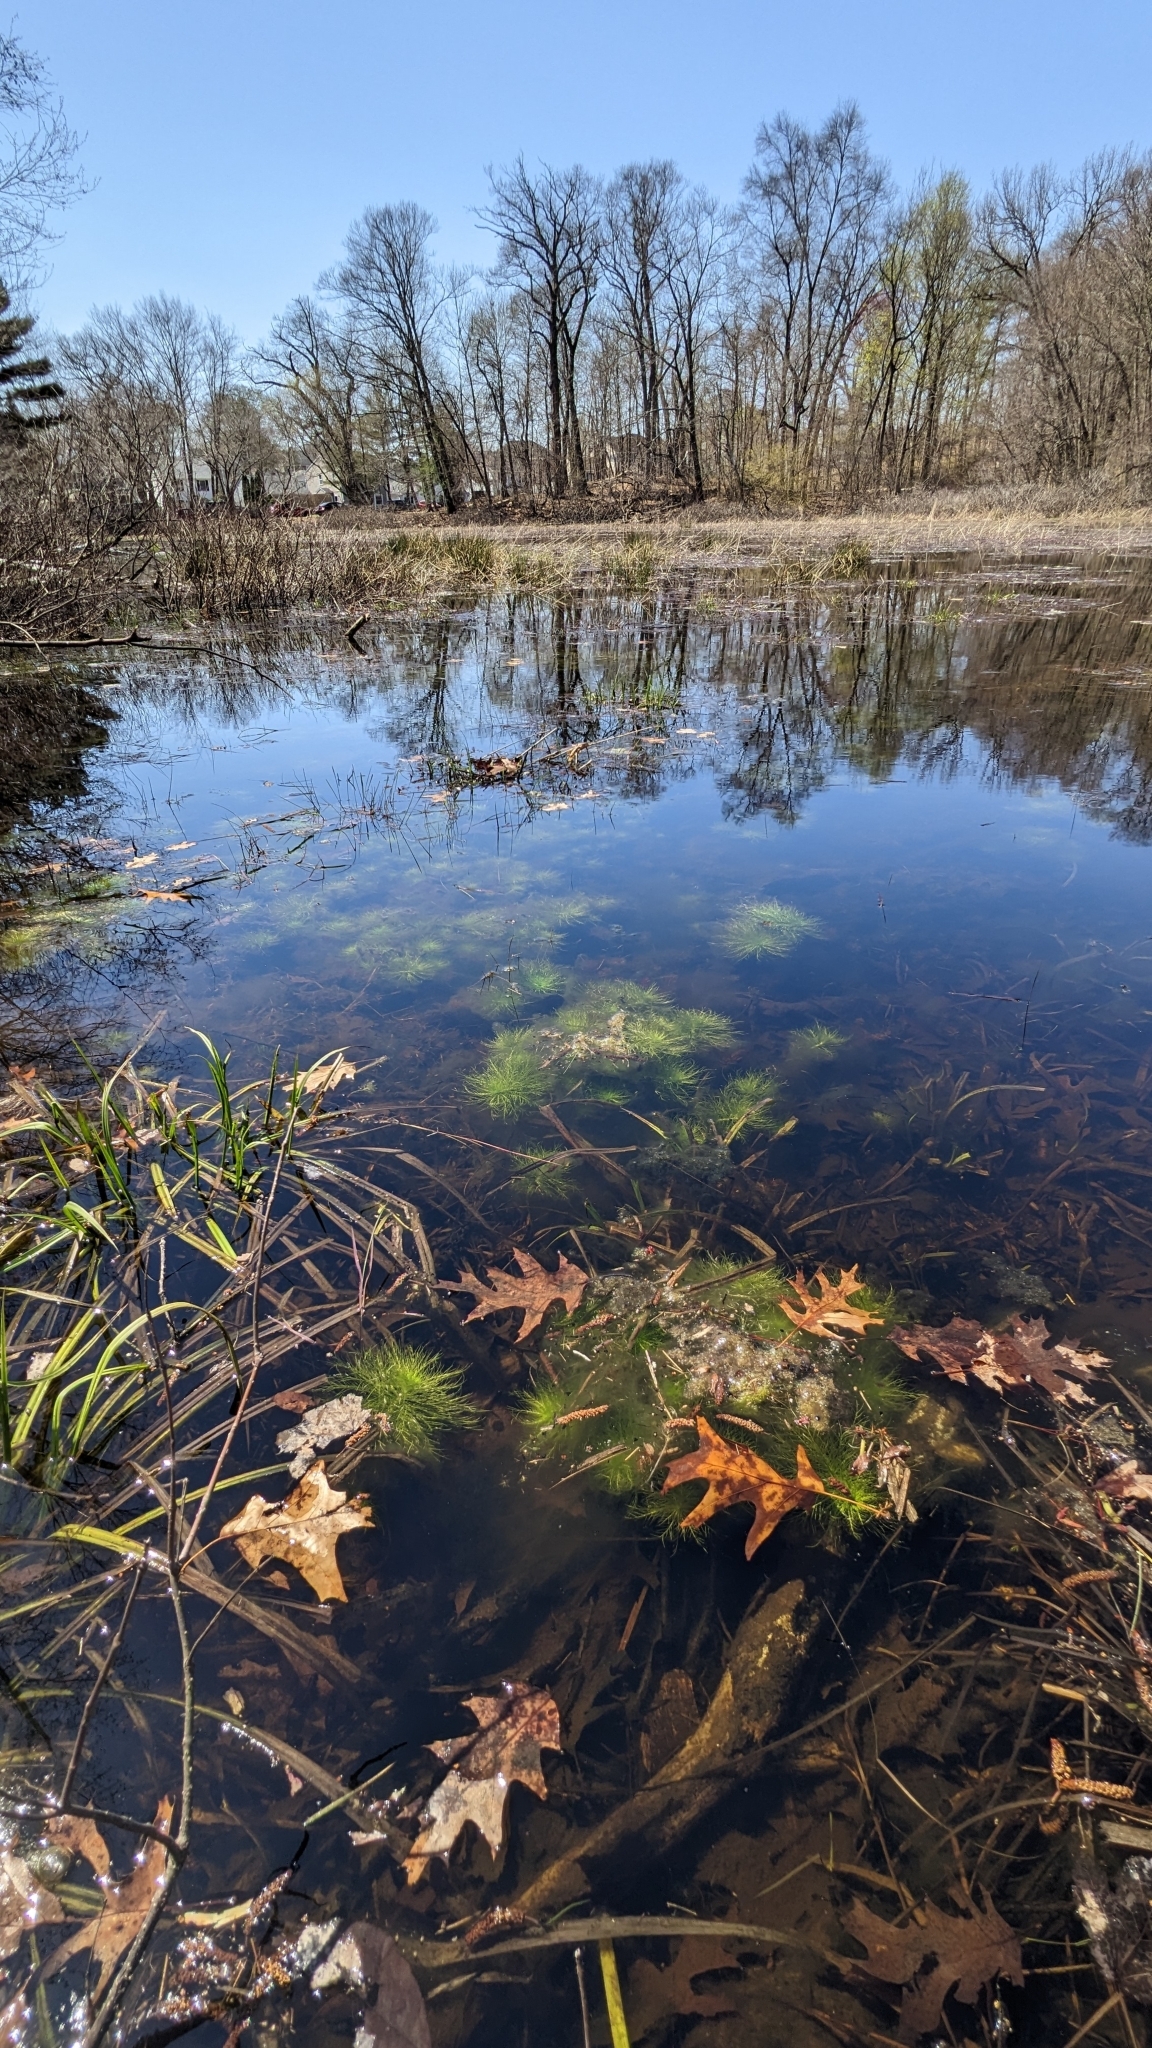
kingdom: Plantae
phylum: Tracheophyta
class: Magnoliopsida
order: Ericales
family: Primulaceae
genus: Hottonia
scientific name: Hottonia inflata
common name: American featherfoil
